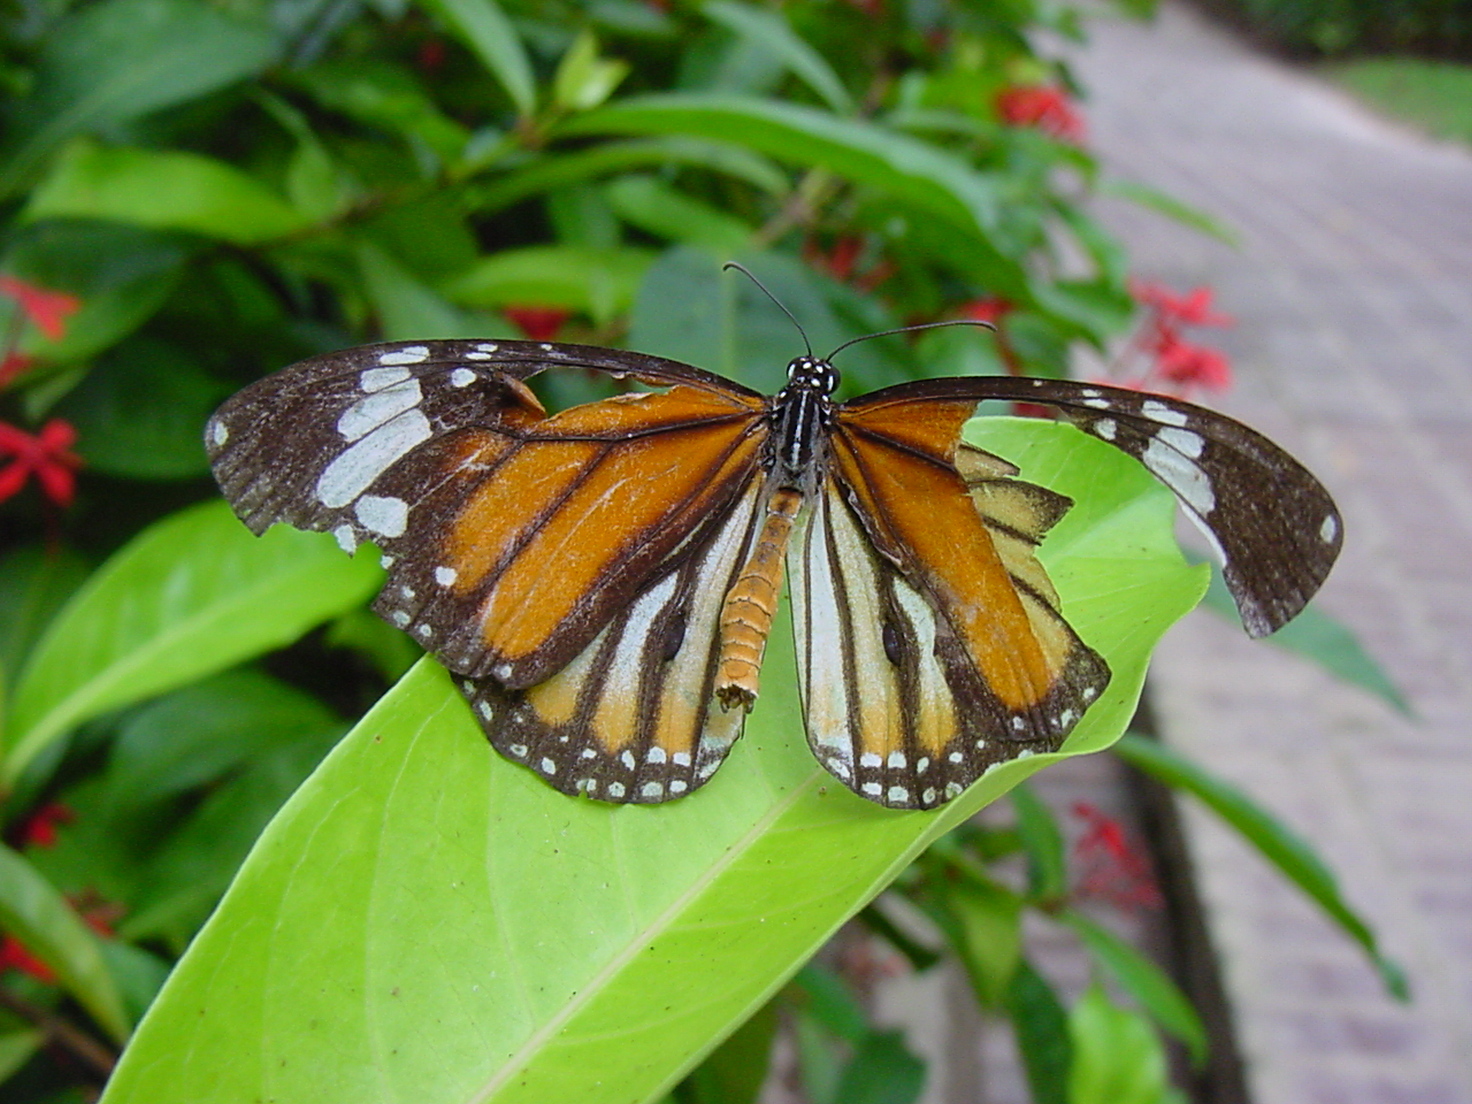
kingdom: Animalia
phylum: Arthropoda
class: Insecta
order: Lepidoptera
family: Nymphalidae
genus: Danaus
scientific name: Danaus genutia
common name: Common tiger butterfly
